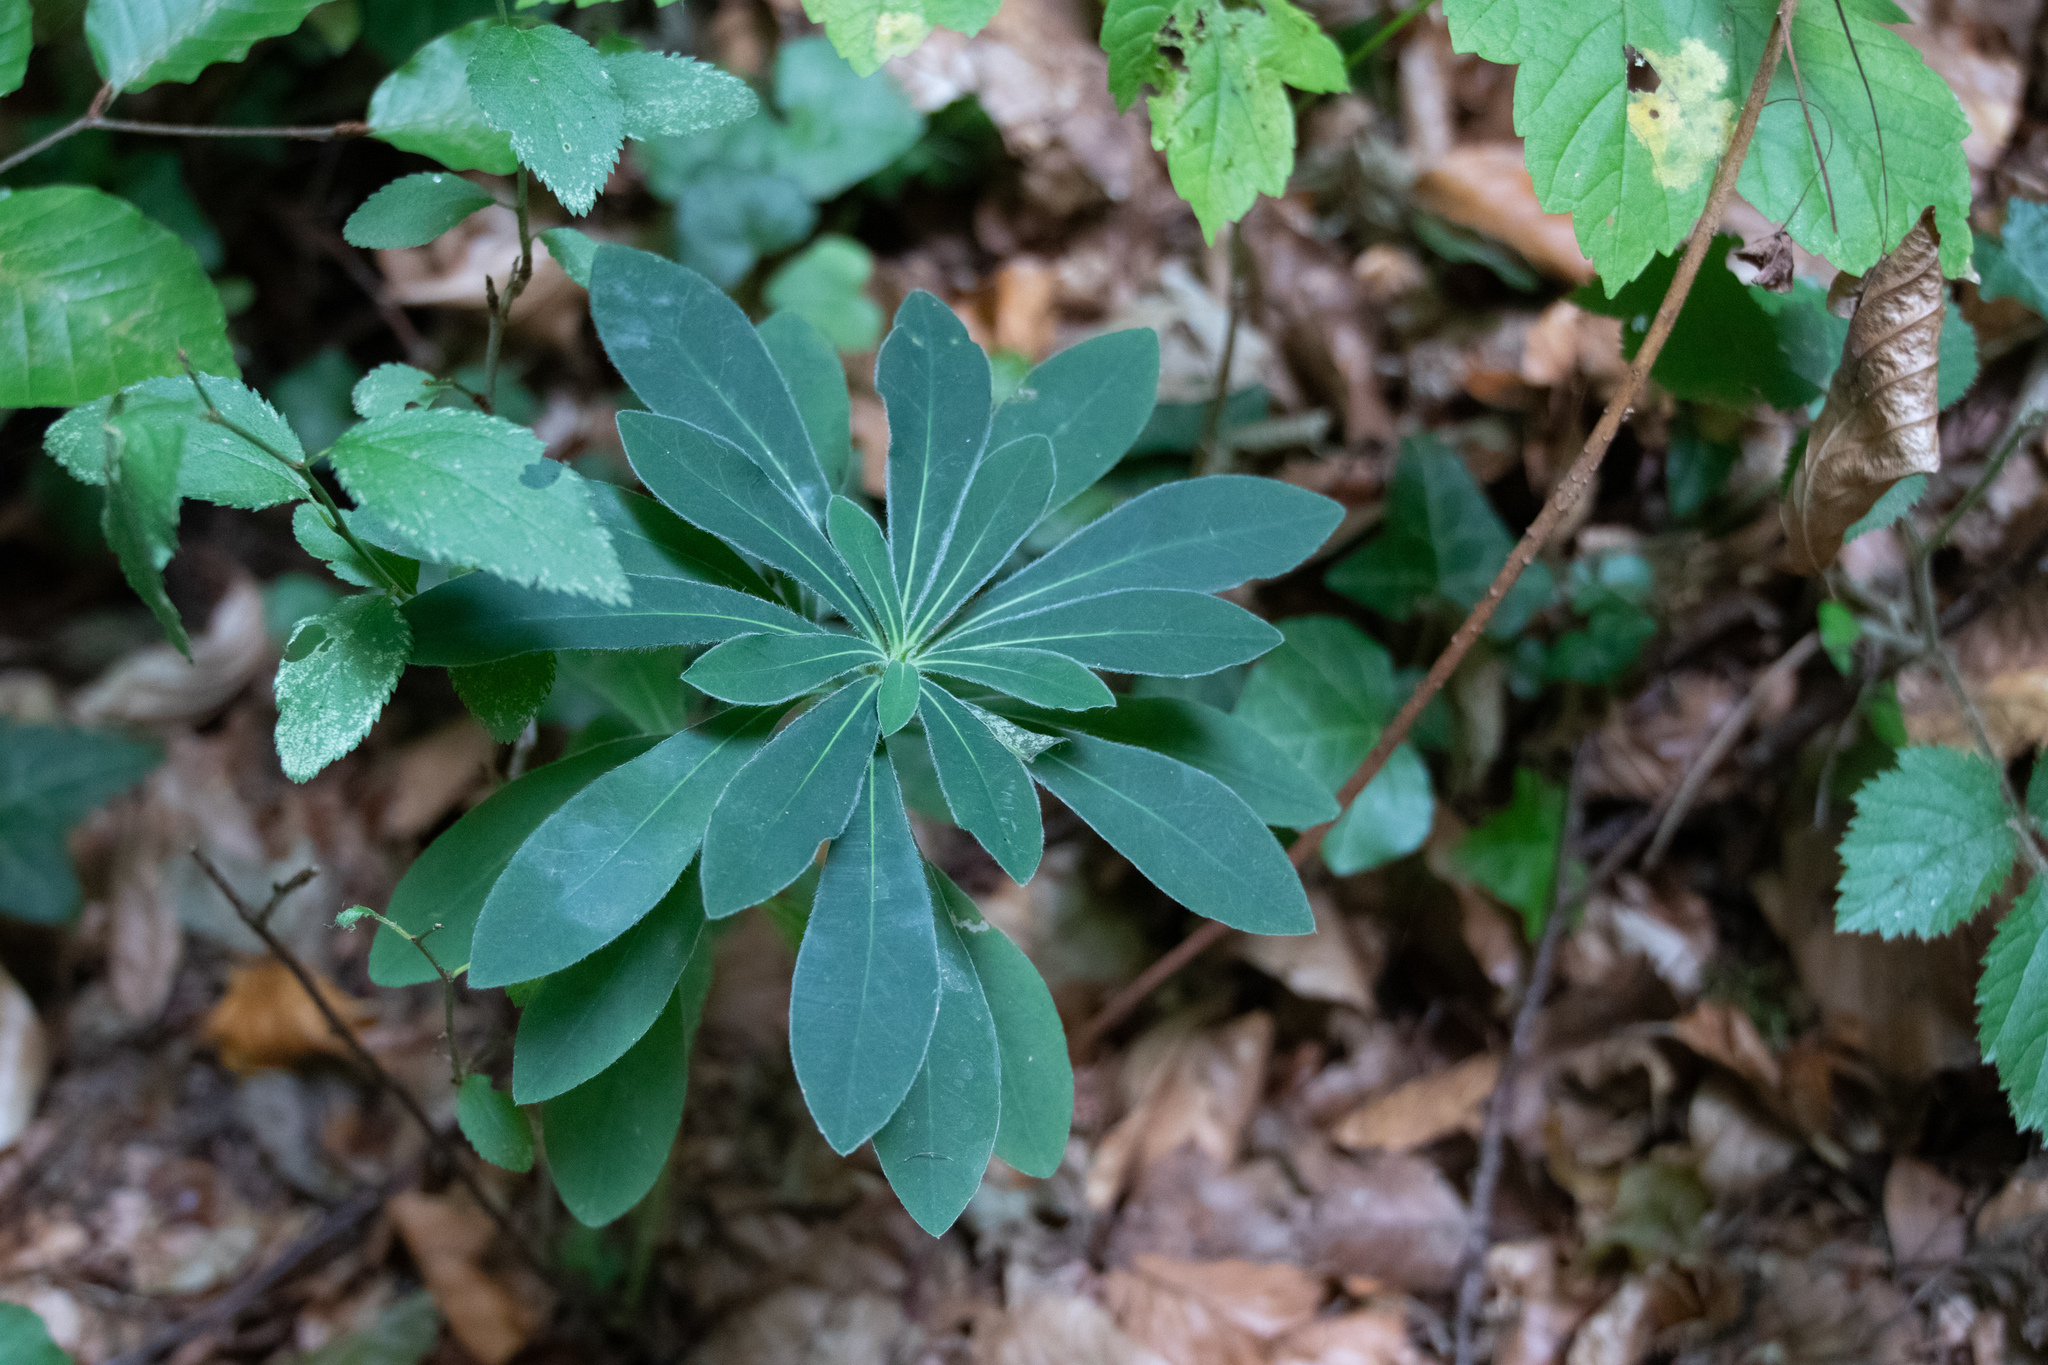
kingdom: Plantae
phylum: Tracheophyta
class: Magnoliopsida
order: Malpighiales
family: Euphorbiaceae
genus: Euphorbia
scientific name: Euphorbia amygdaloides
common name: Wood spurge
